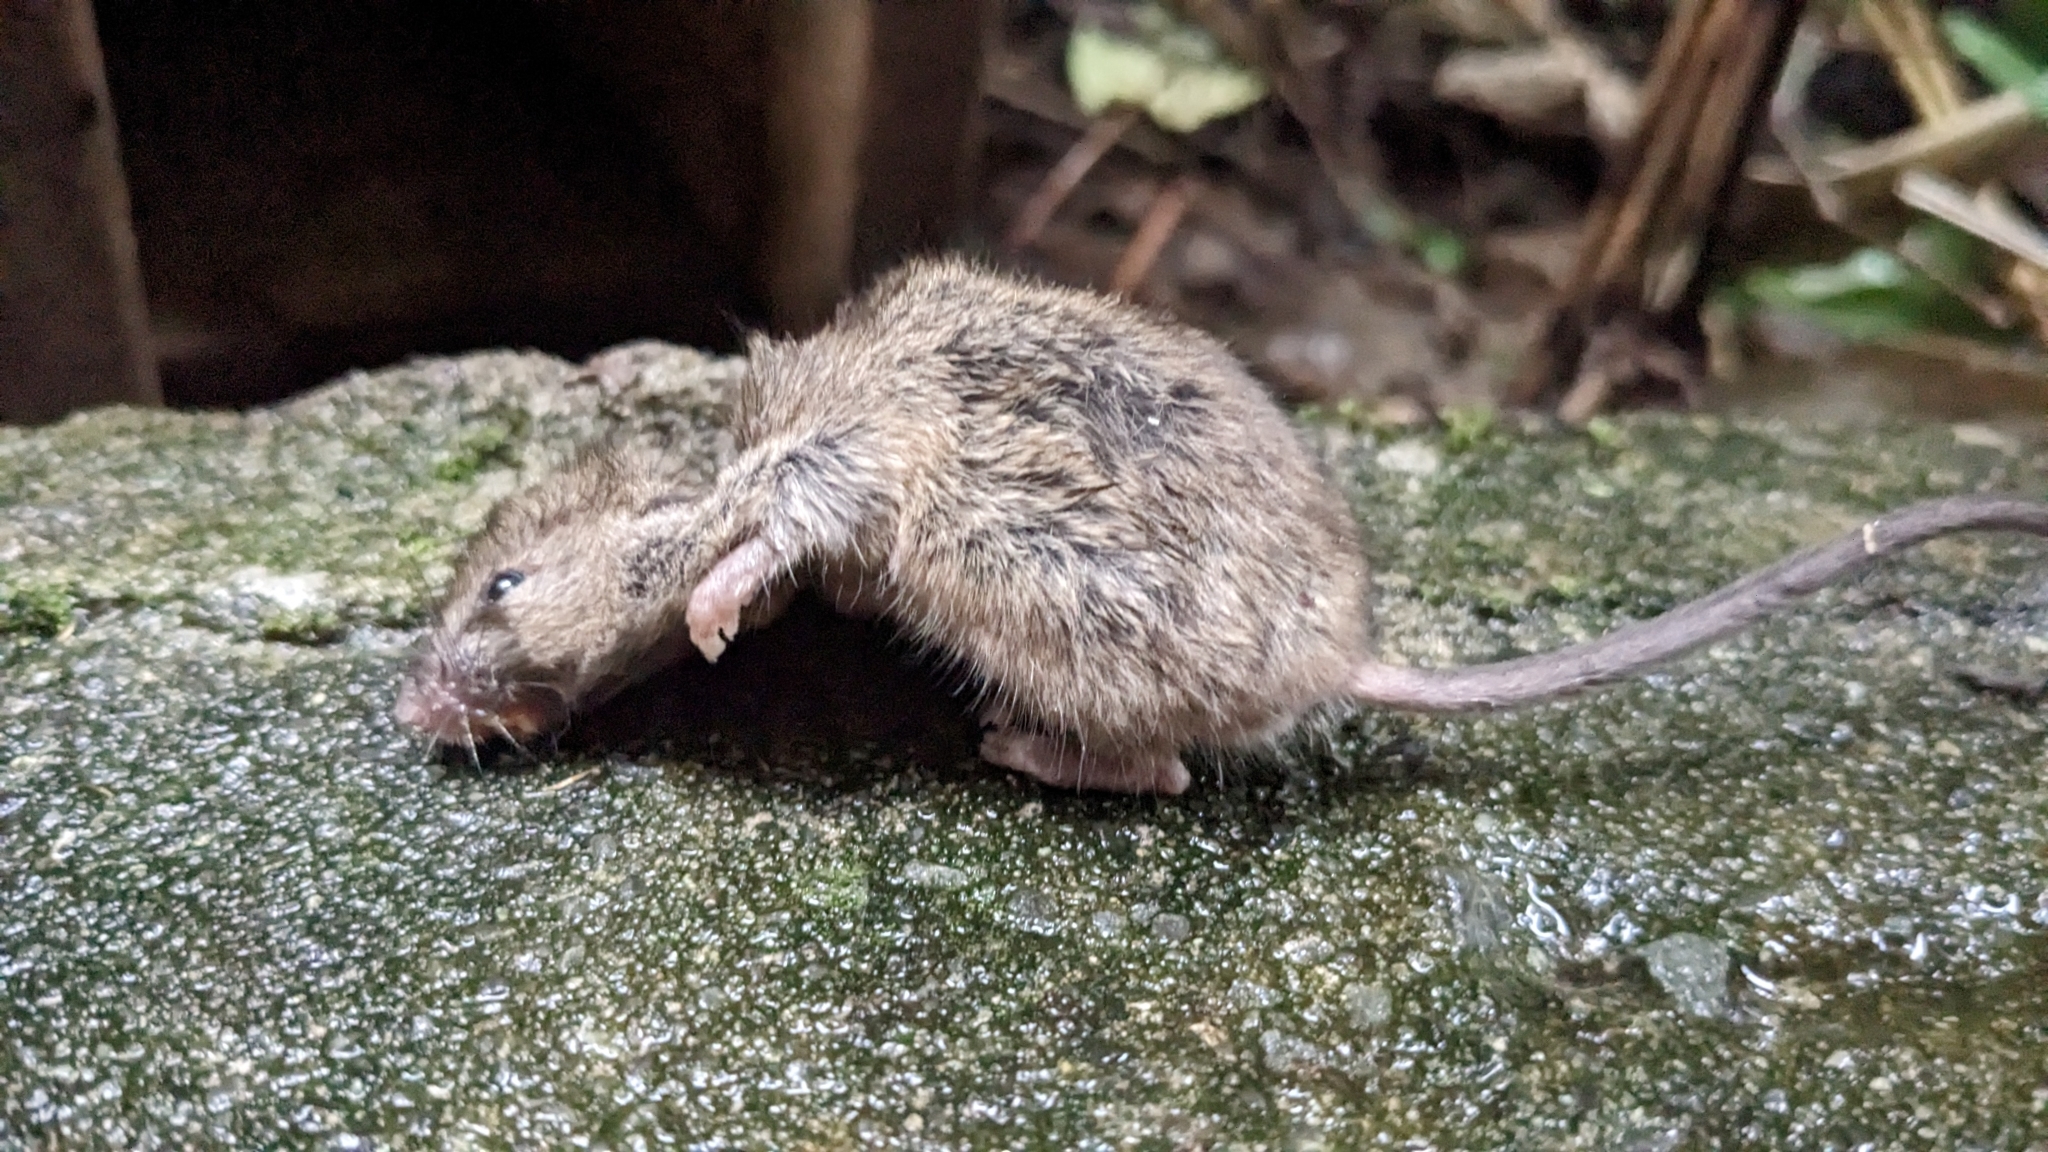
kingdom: Animalia
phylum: Chordata
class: Mammalia
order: Rodentia
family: Muridae
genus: Mus
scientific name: Mus musculus
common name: House mouse
